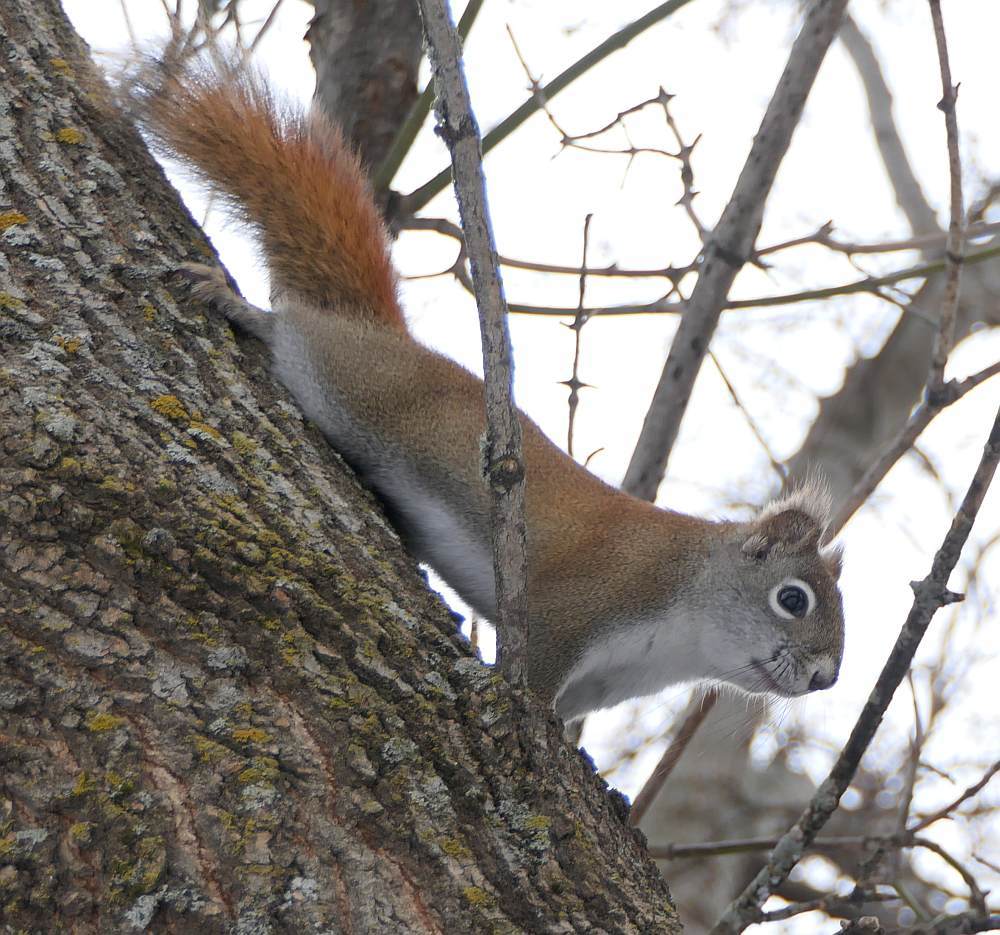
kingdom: Animalia
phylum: Chordata
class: Mammalia
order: Rodentia
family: Sciuridae
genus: Tamiasciurus
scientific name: Tamiasciurus hudsonicus
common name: Red squirrel
